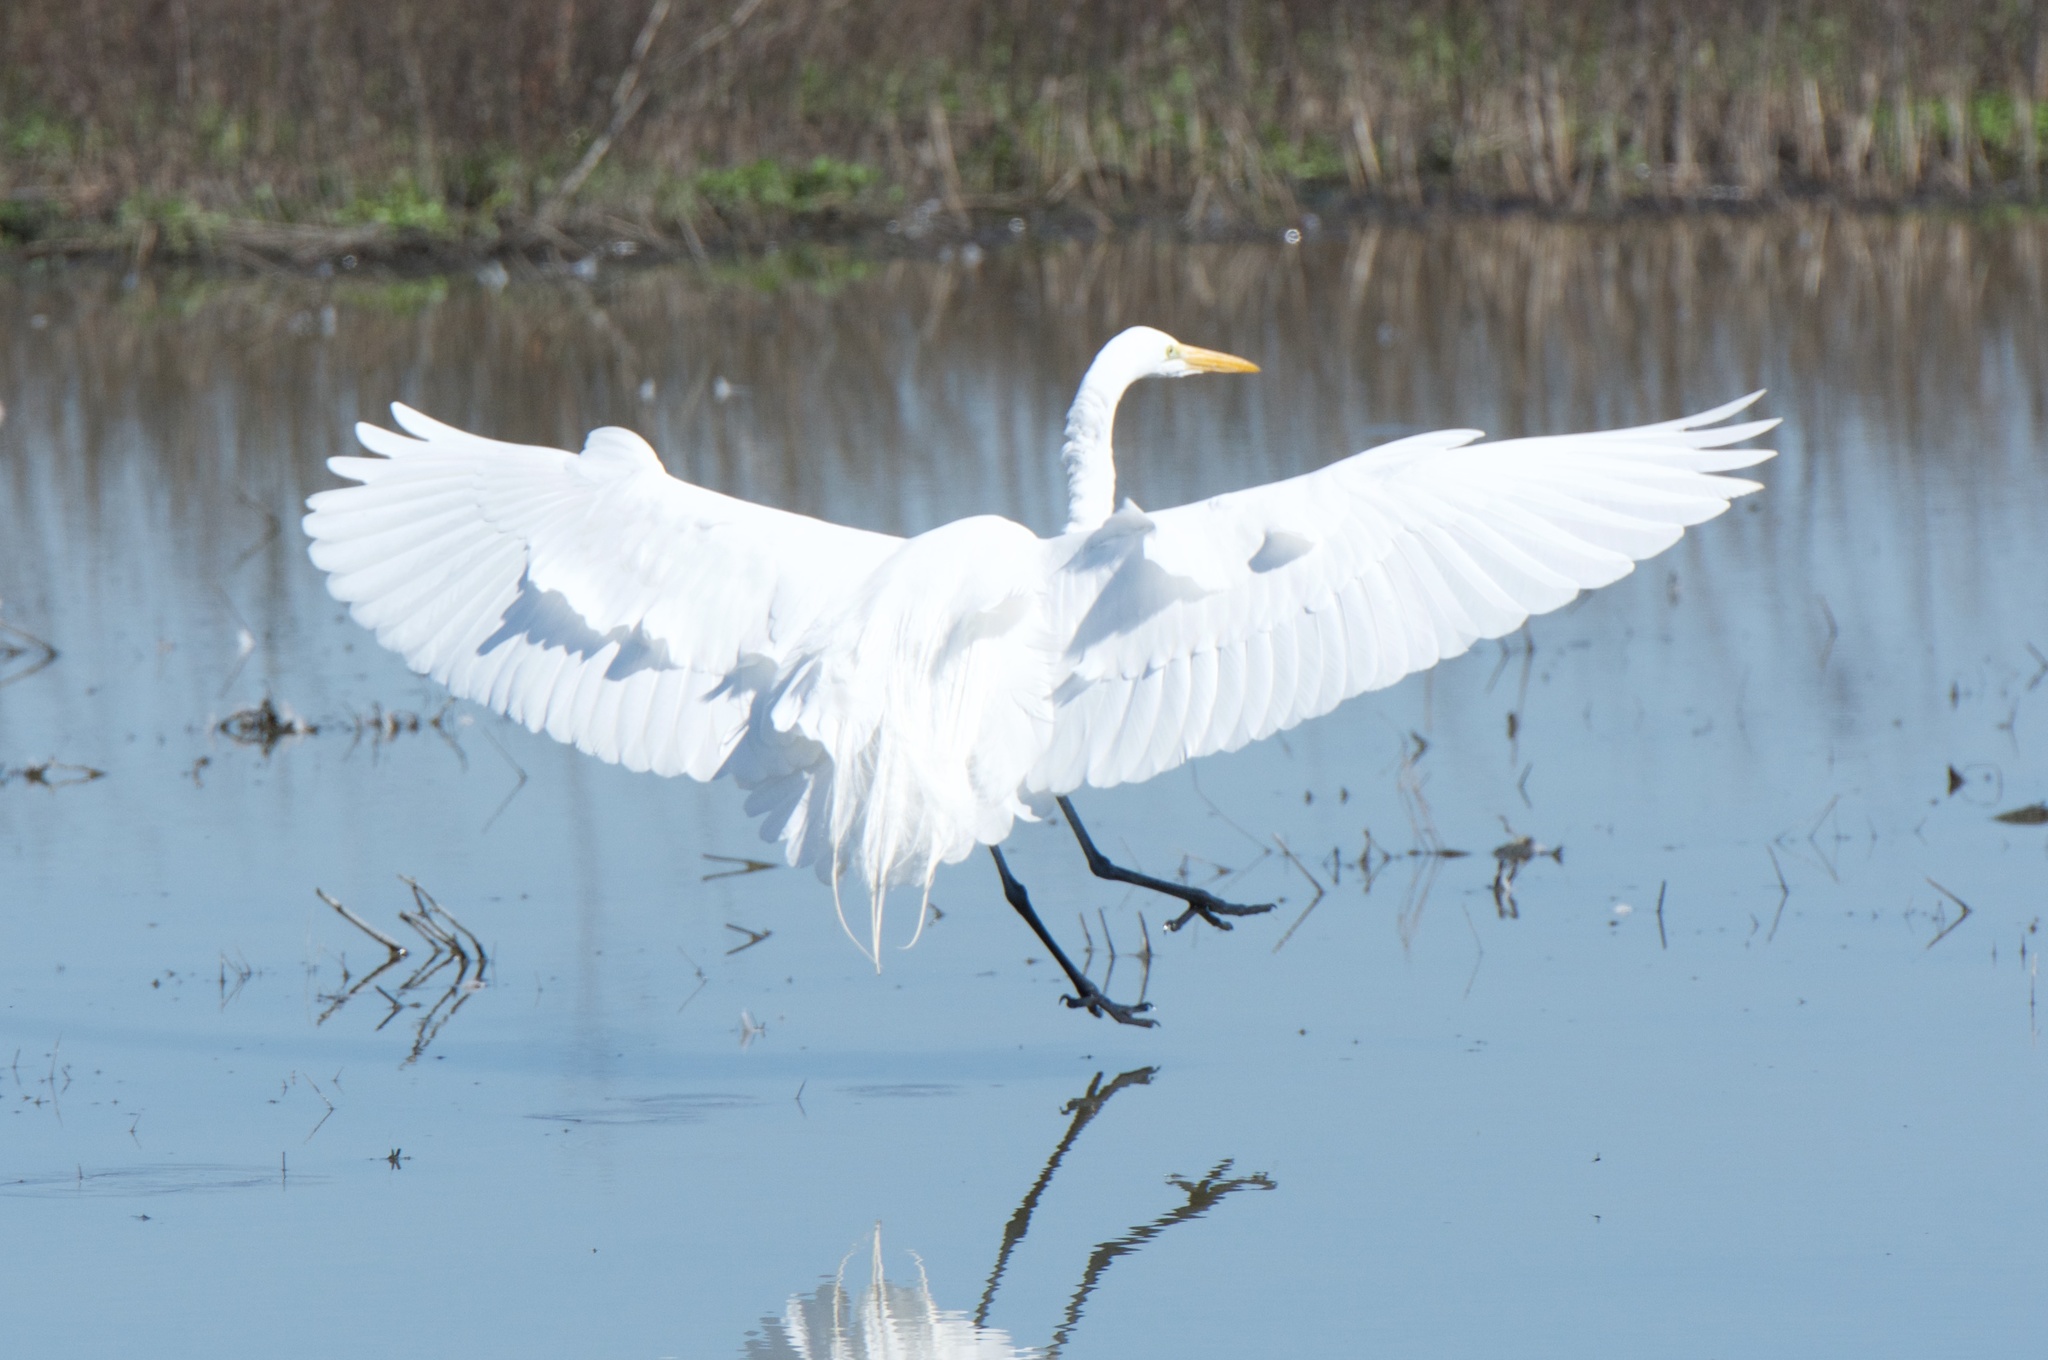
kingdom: Animalia
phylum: Chordata
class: Aves
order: Pelecaniformes
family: Ardeidae
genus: Ardea
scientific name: Ardea alba
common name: Great egret
